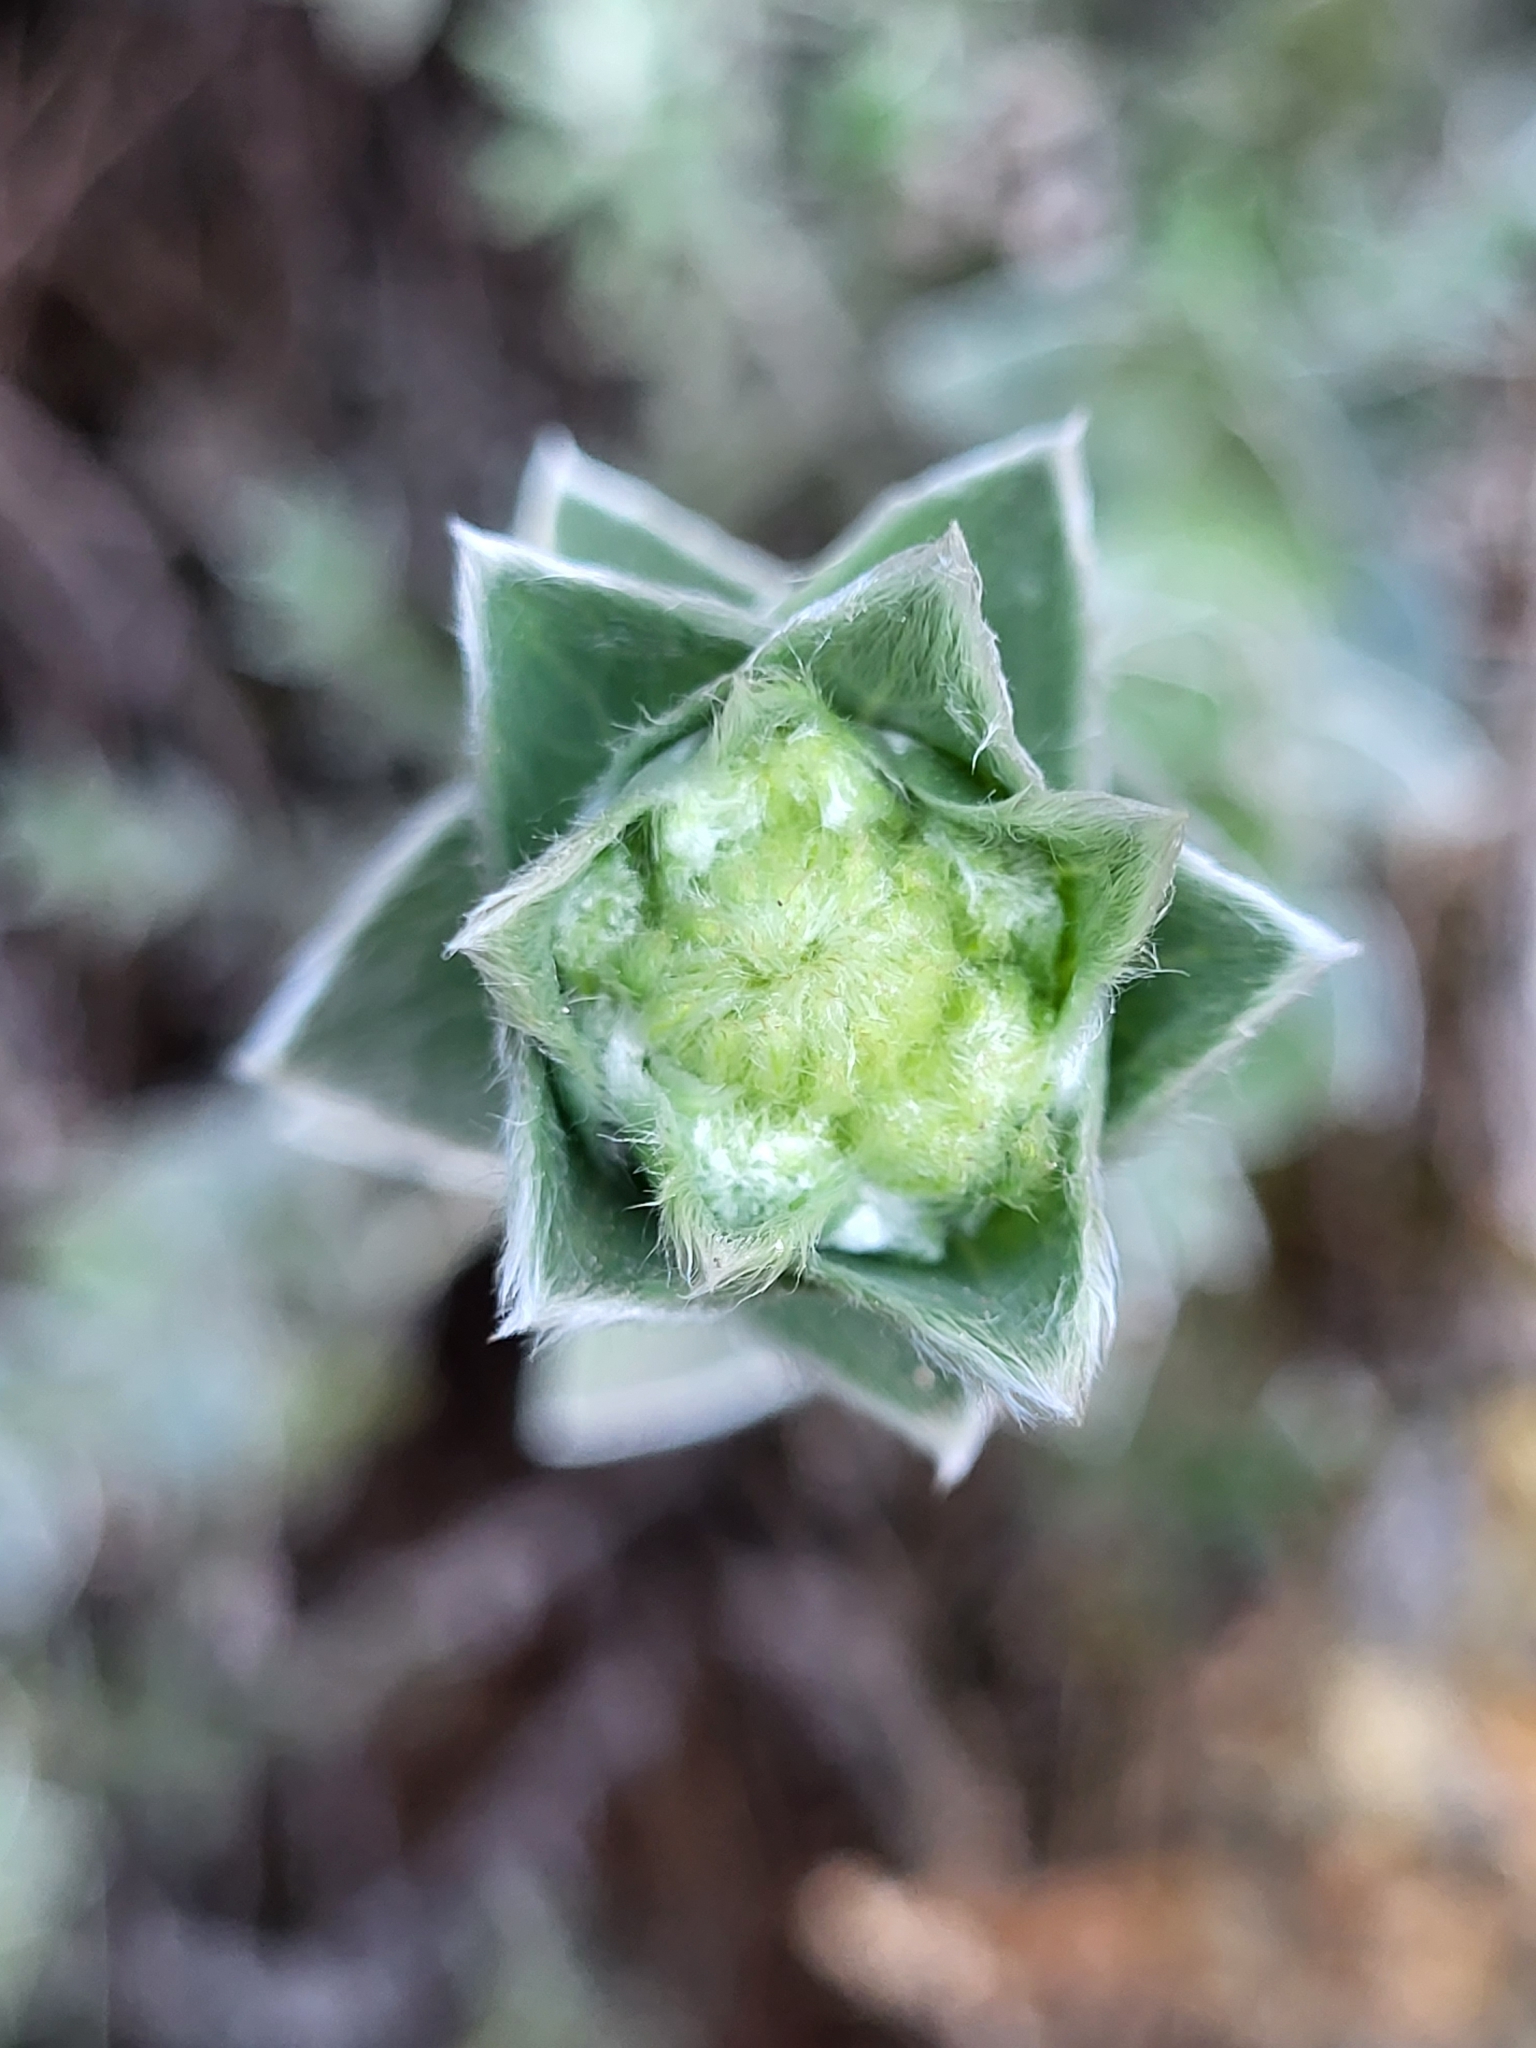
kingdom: Plantae
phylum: Tracheophyta
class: Magnoliopsida
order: Asterales
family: Asteraceae
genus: Psiadia
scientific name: Psiadia argentea
